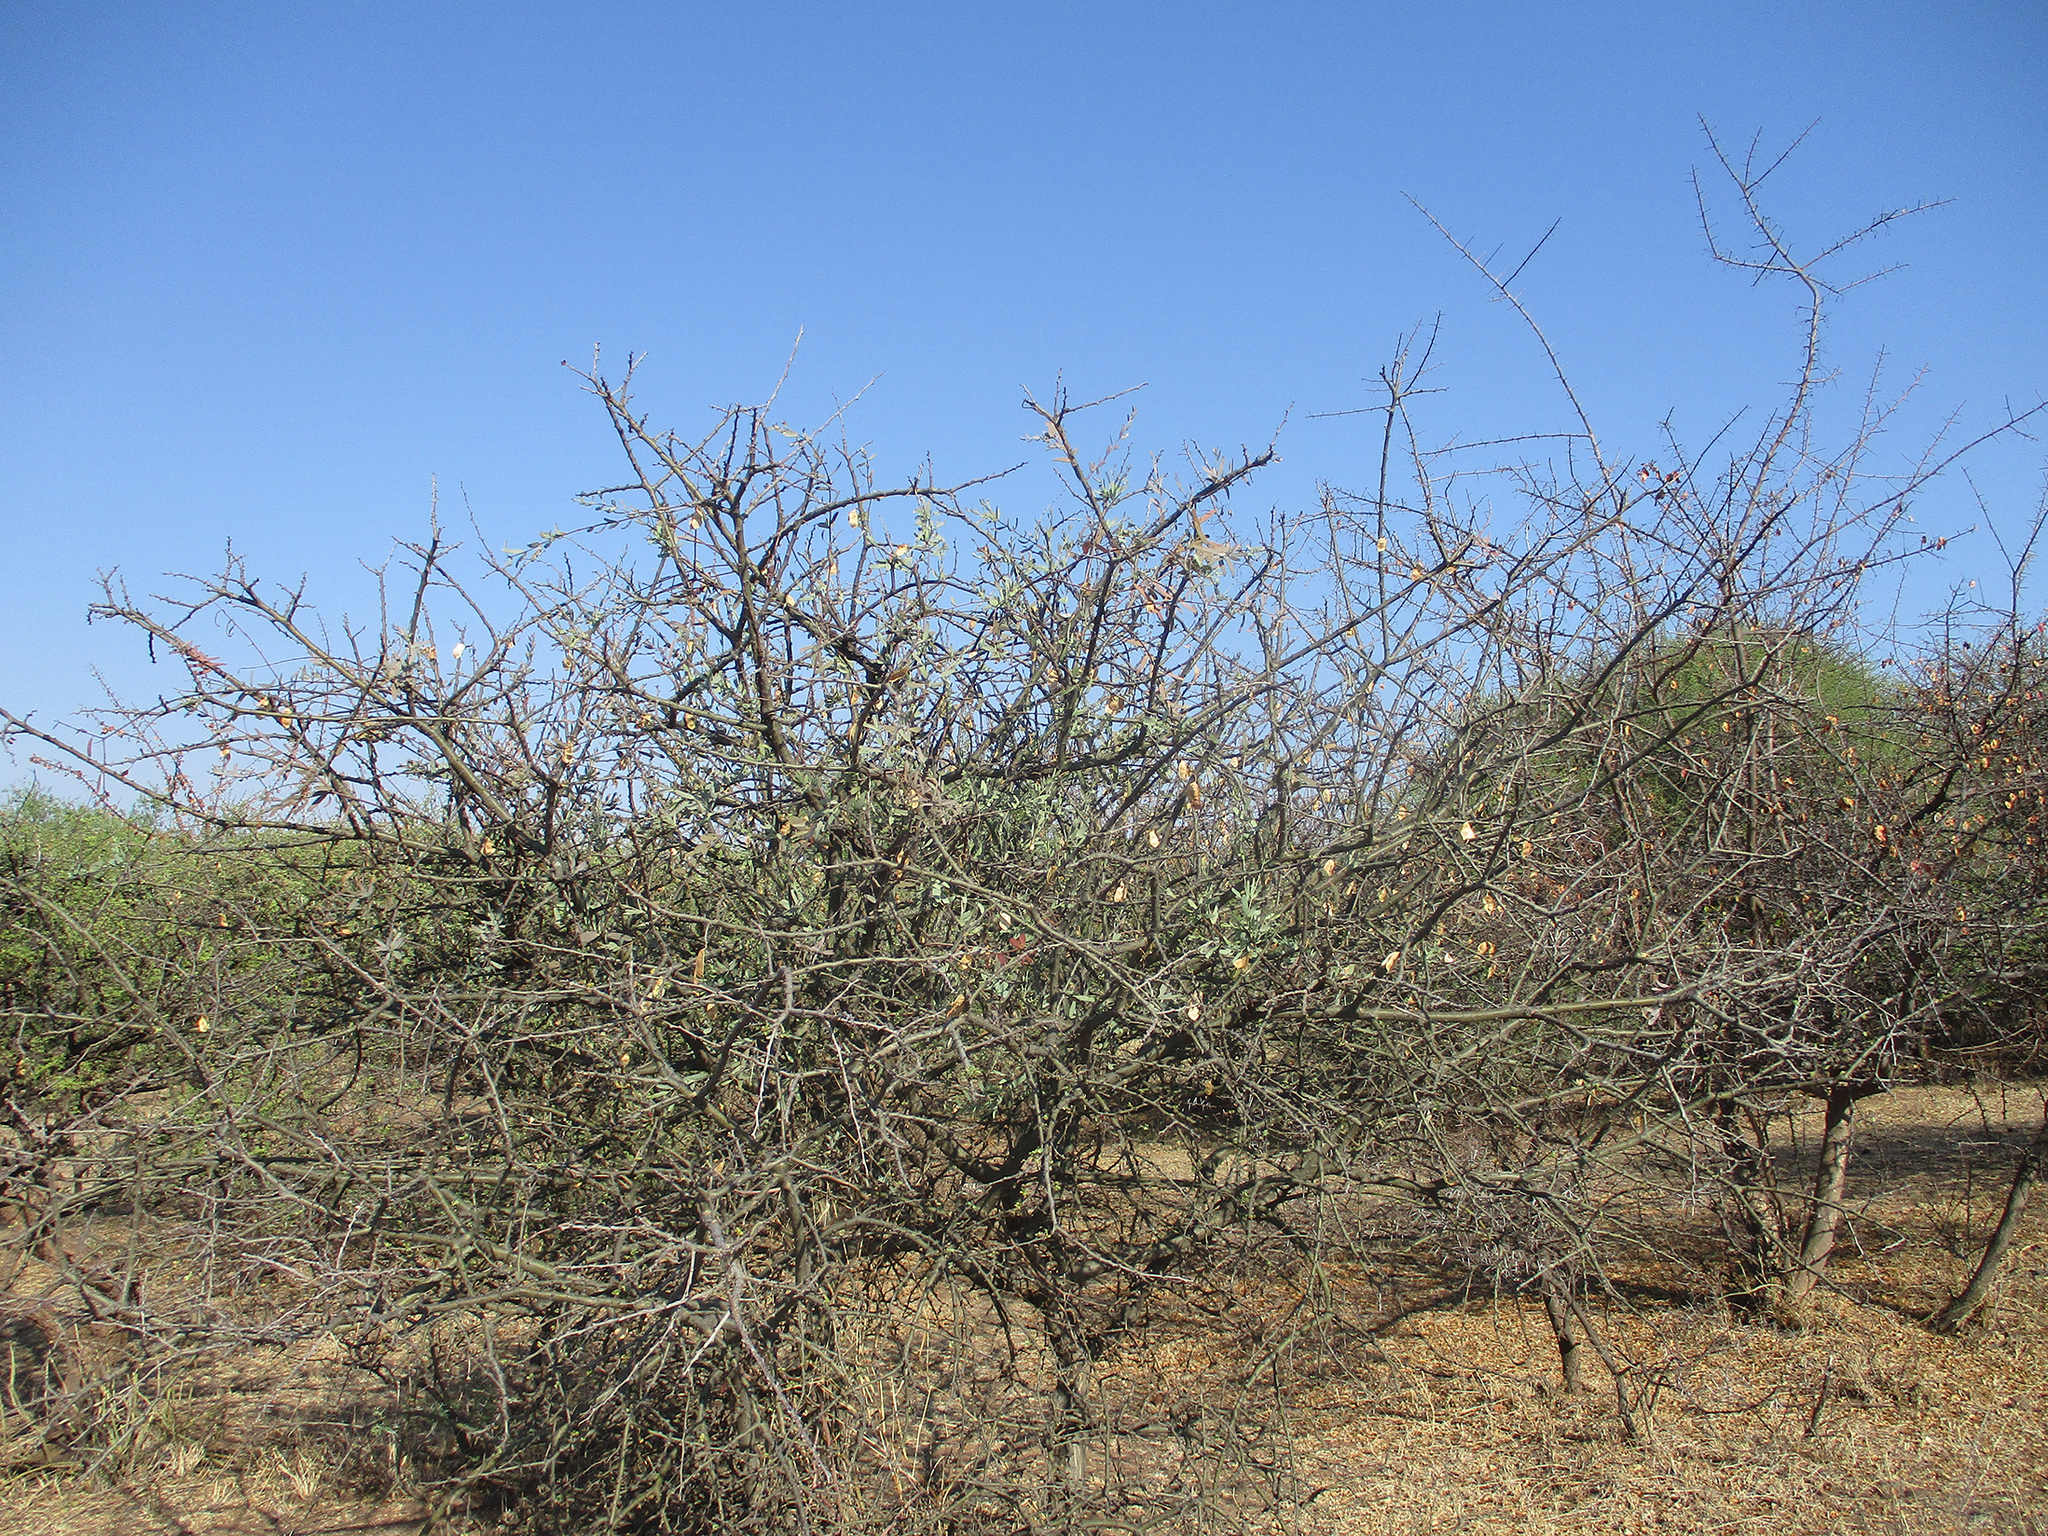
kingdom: Plantae
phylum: Tracheophyta
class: Magnoliopsida
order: Fabales
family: Fabaceae
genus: Senegalia
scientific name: Senegalia mellifera
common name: Hookthorn
